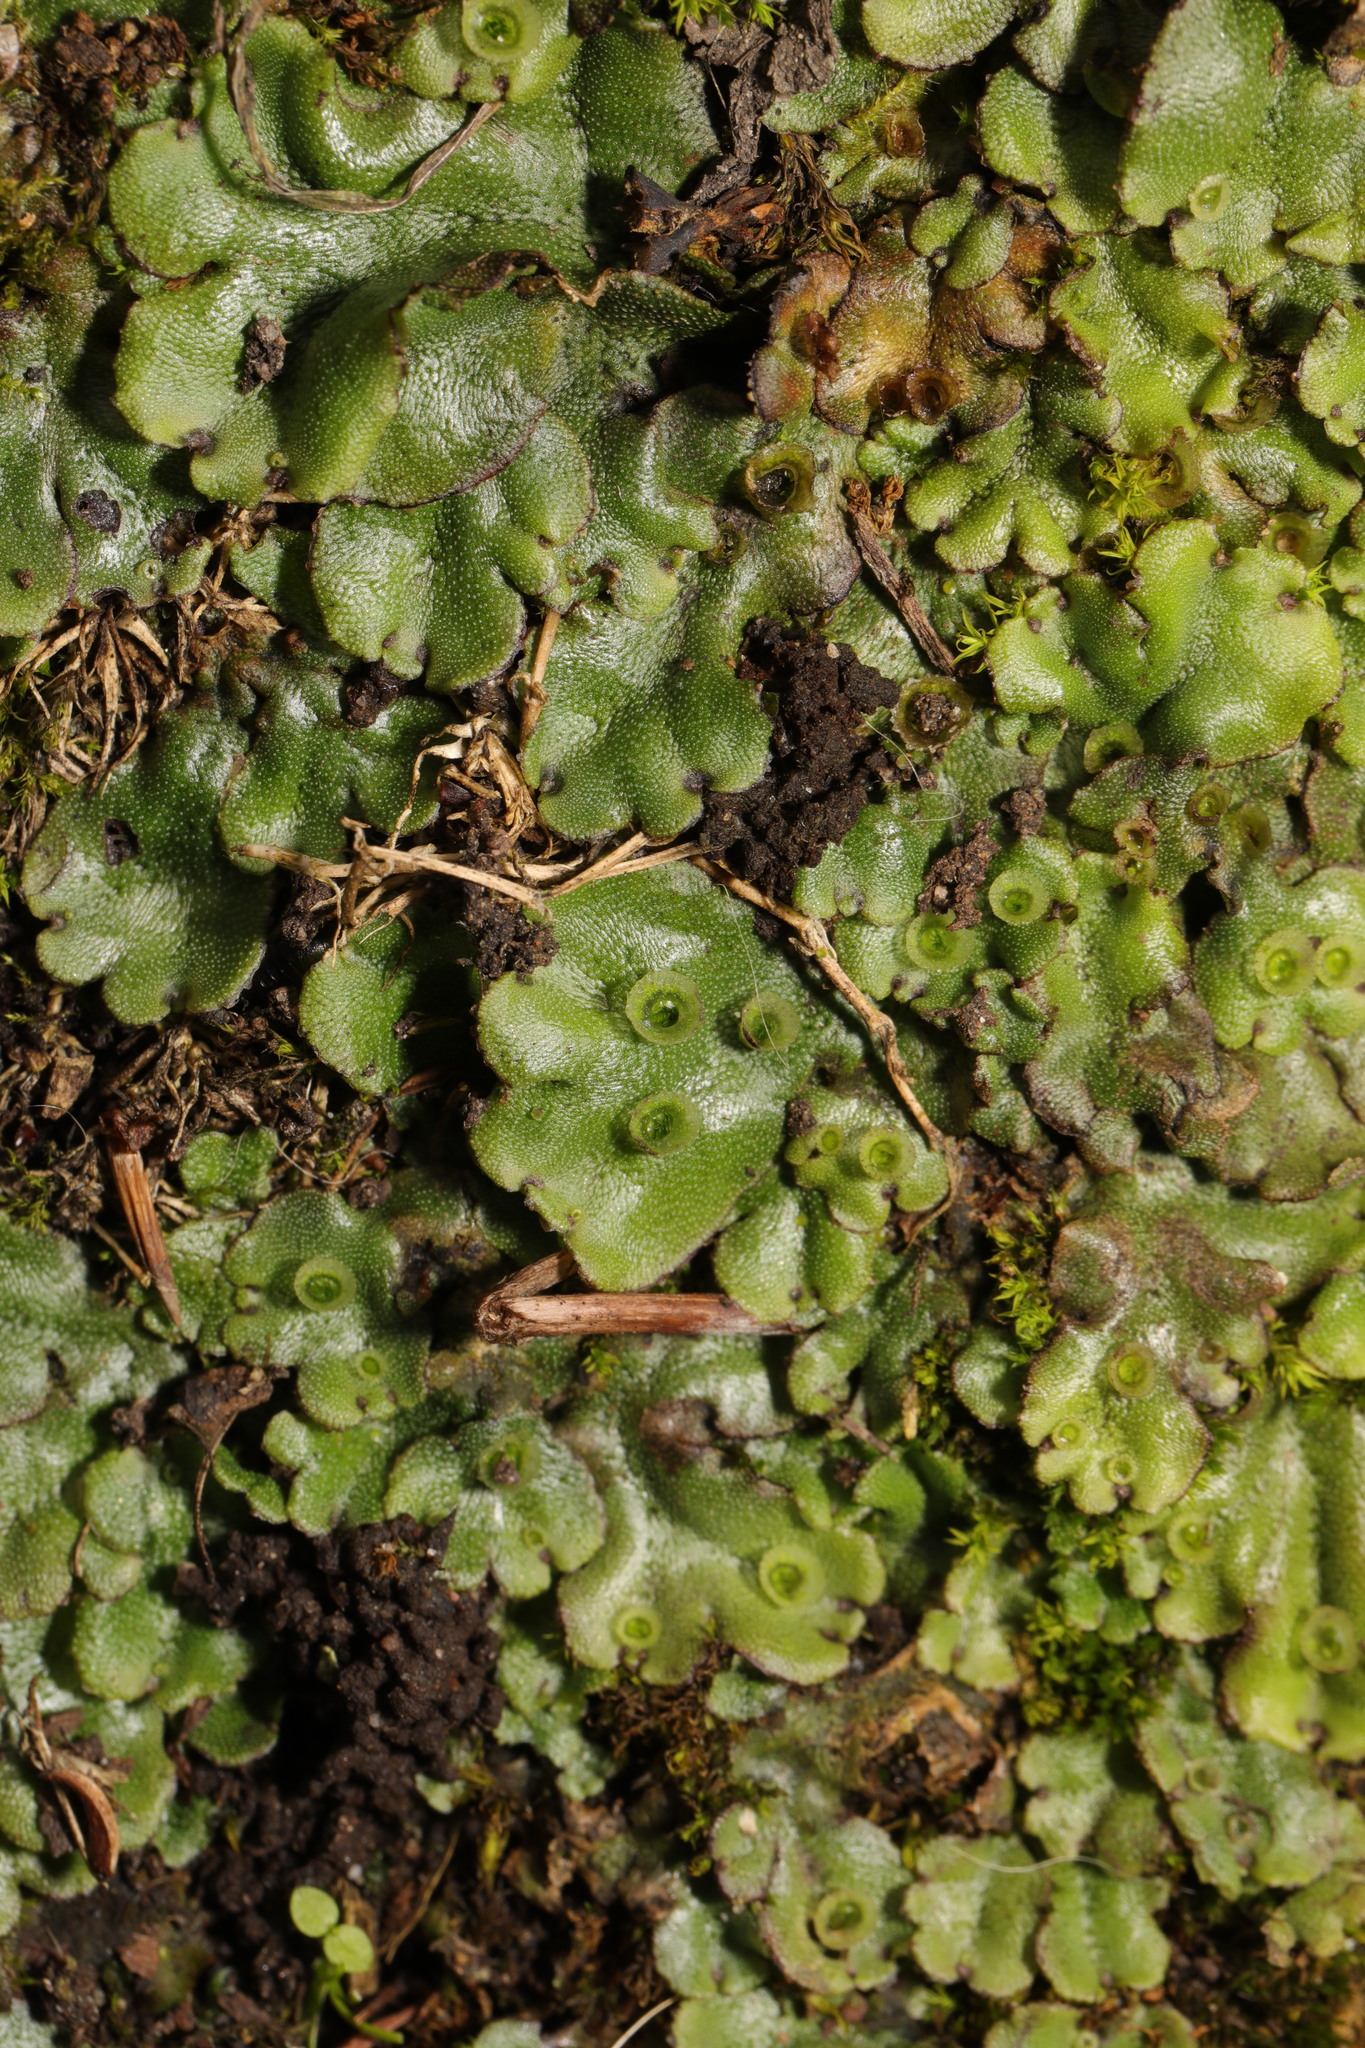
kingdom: Plantae
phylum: Marchantiophyta
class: Marchantiopsida
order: Marchantiales
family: Marchantiaceae
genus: Marchantia
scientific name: Marchantia polymorpha
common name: Common liverwort
